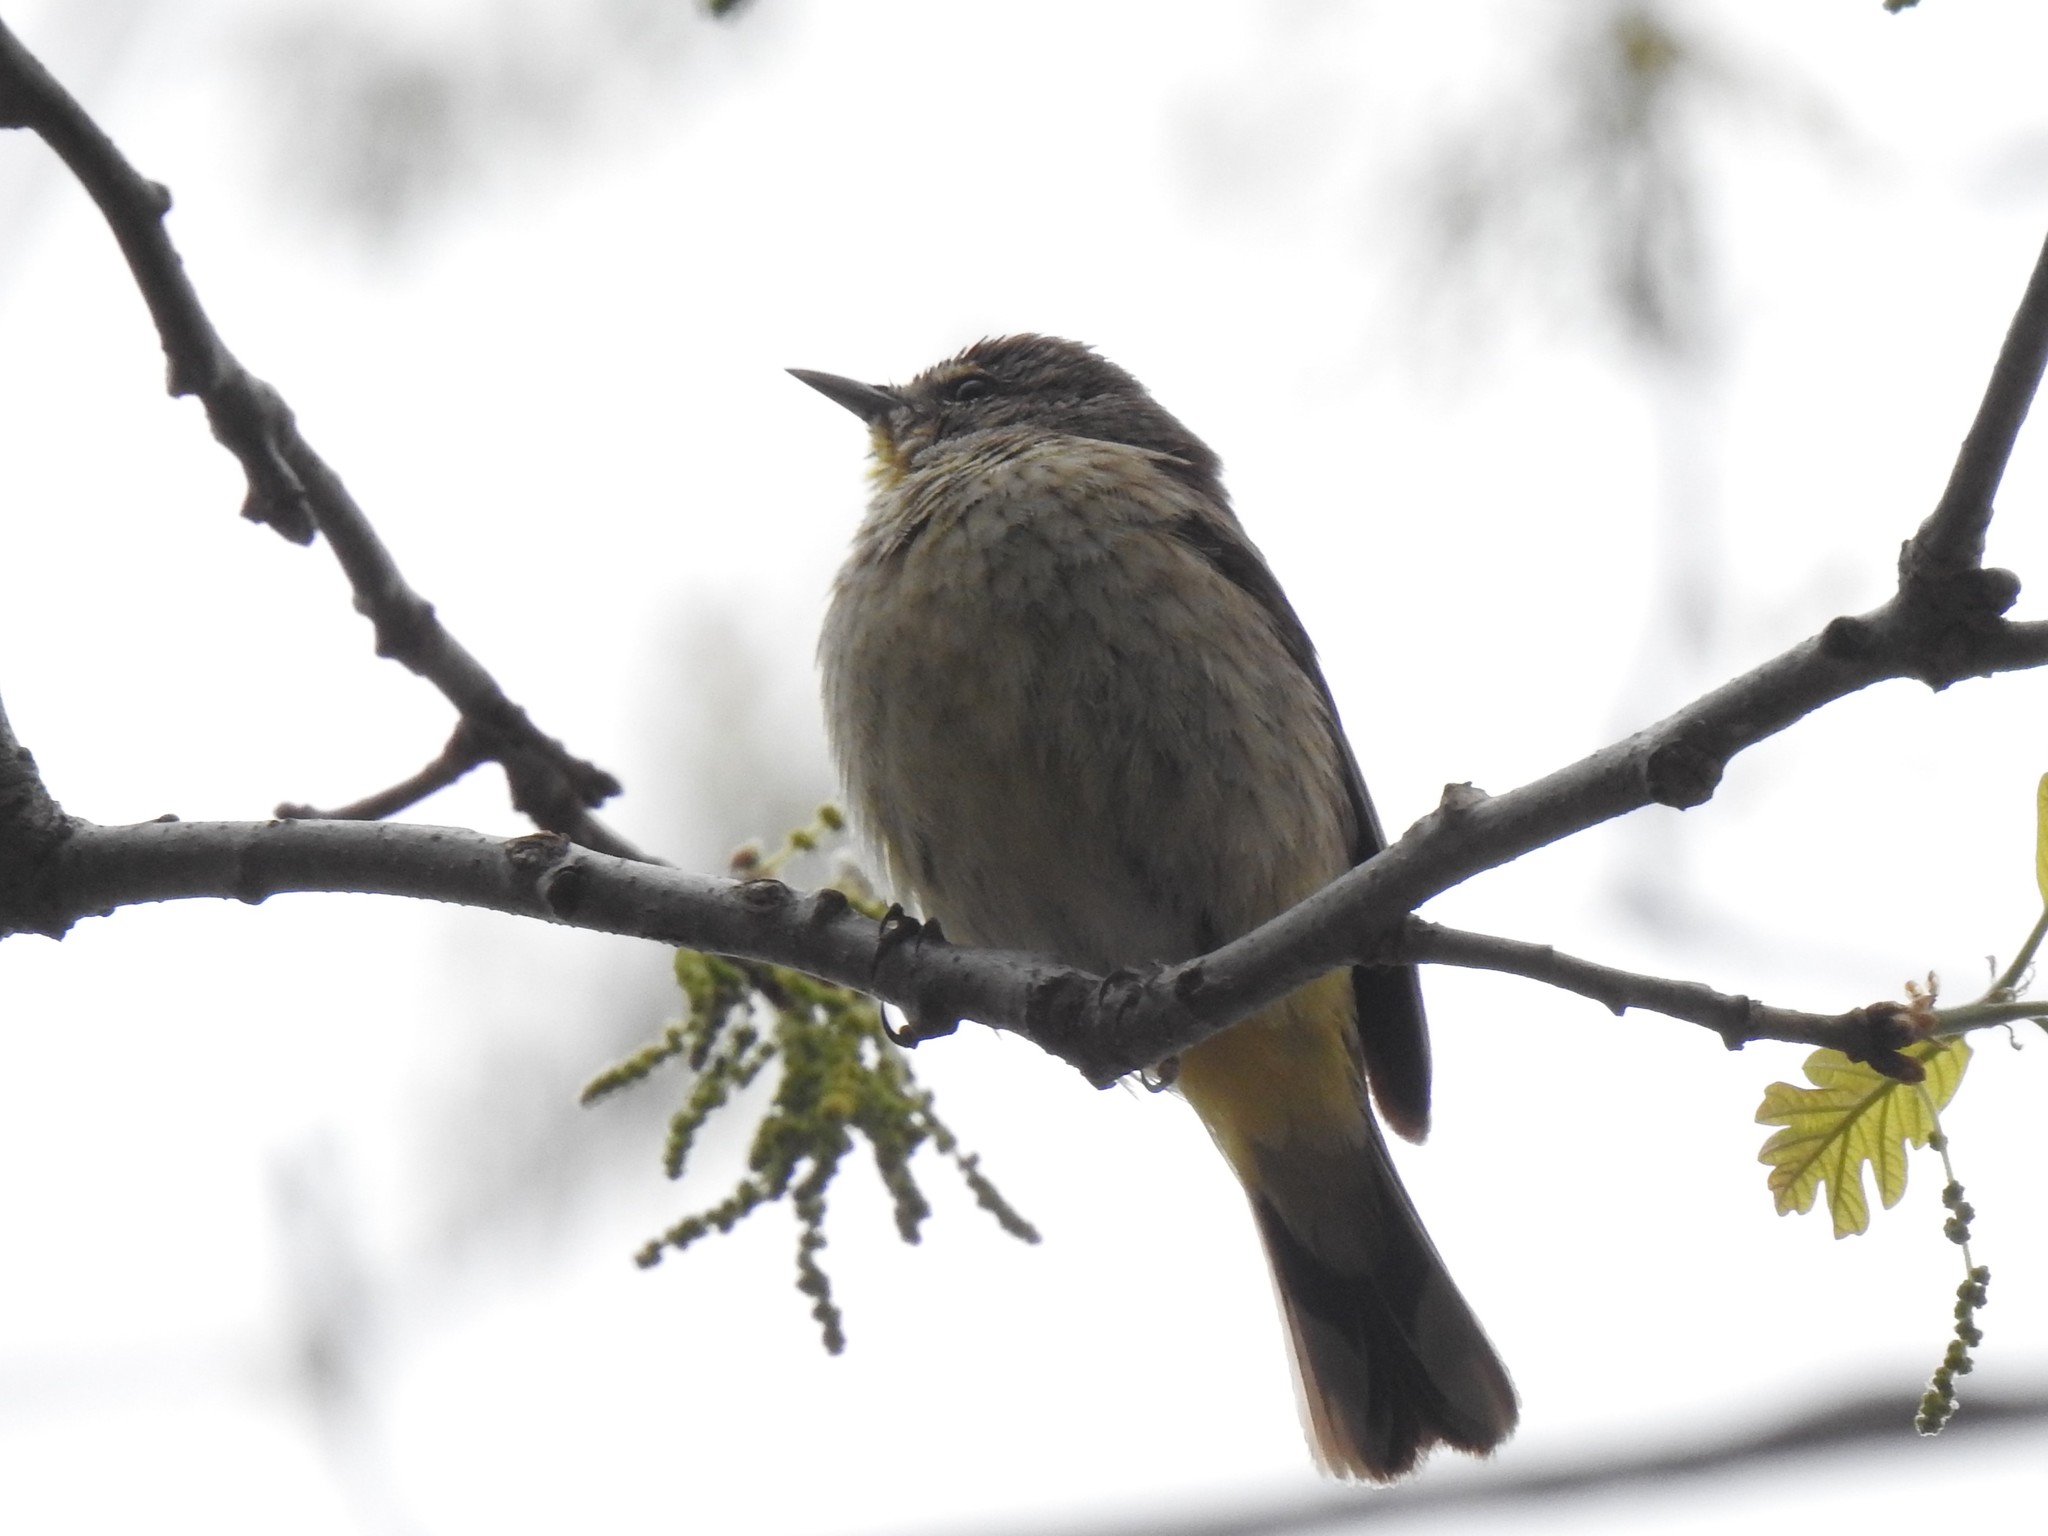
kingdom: Animalia
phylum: Chordata
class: Aves
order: Passeriformes
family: Parulidae
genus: Setophaga
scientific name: Setophaga palmarum
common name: Palm warbler
